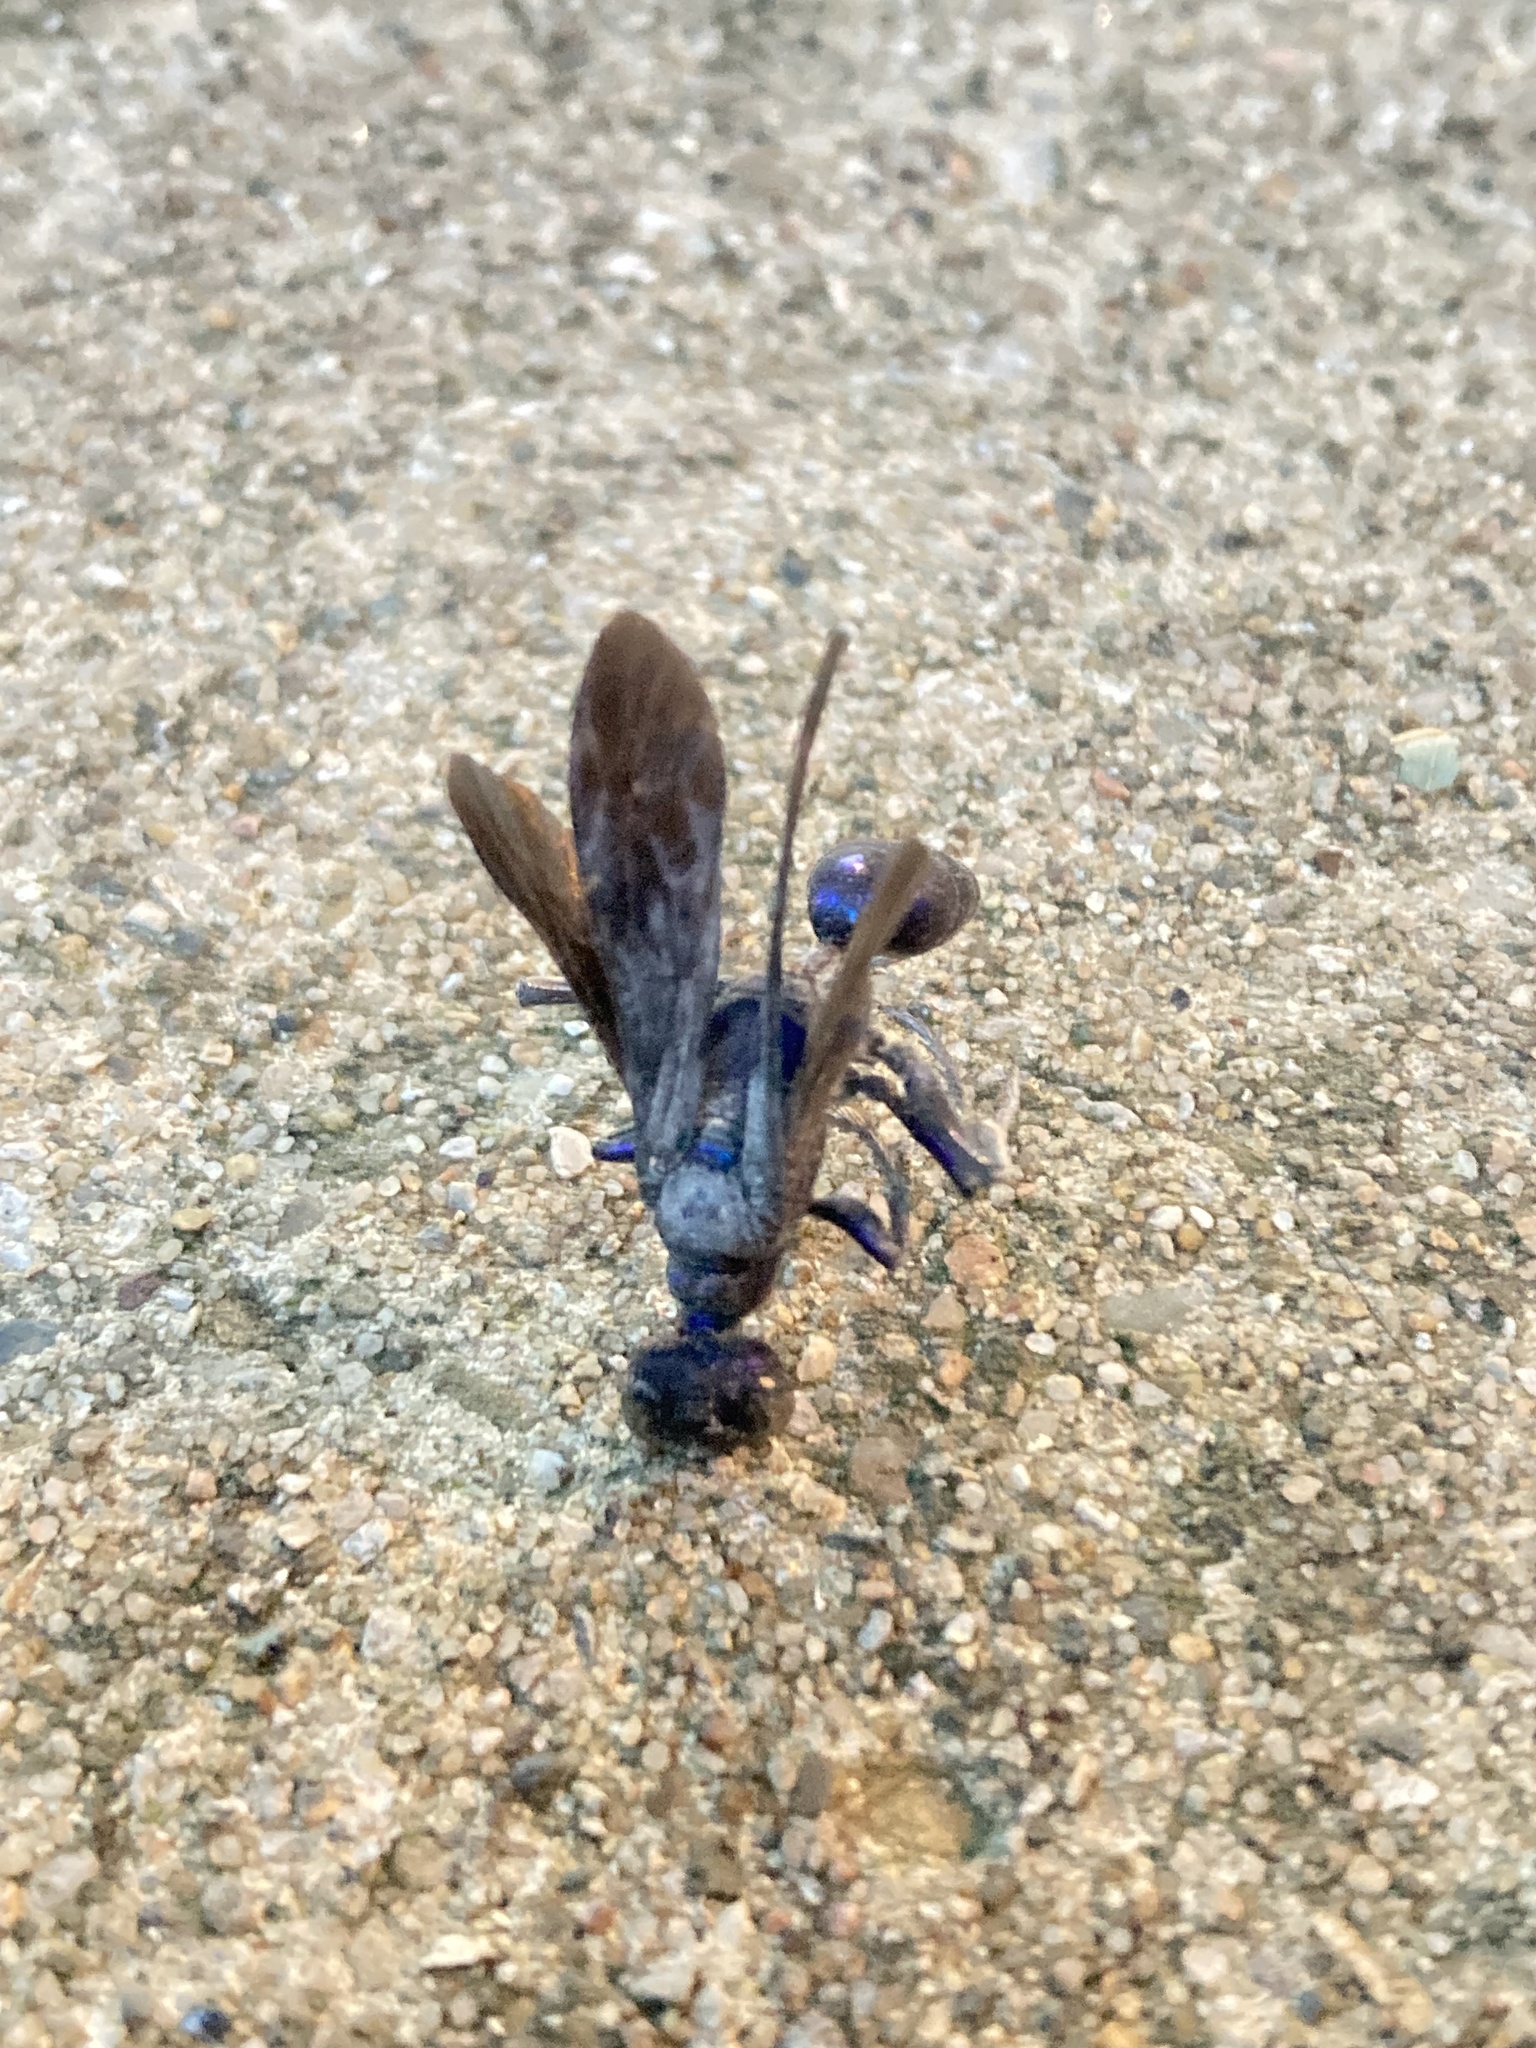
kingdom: Animalia
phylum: Arthropoda
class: Insecta
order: Hymenoptera
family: Sphecidae
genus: Chlorion
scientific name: Chlorion aerarium
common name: Steel-blue cricket hunter
